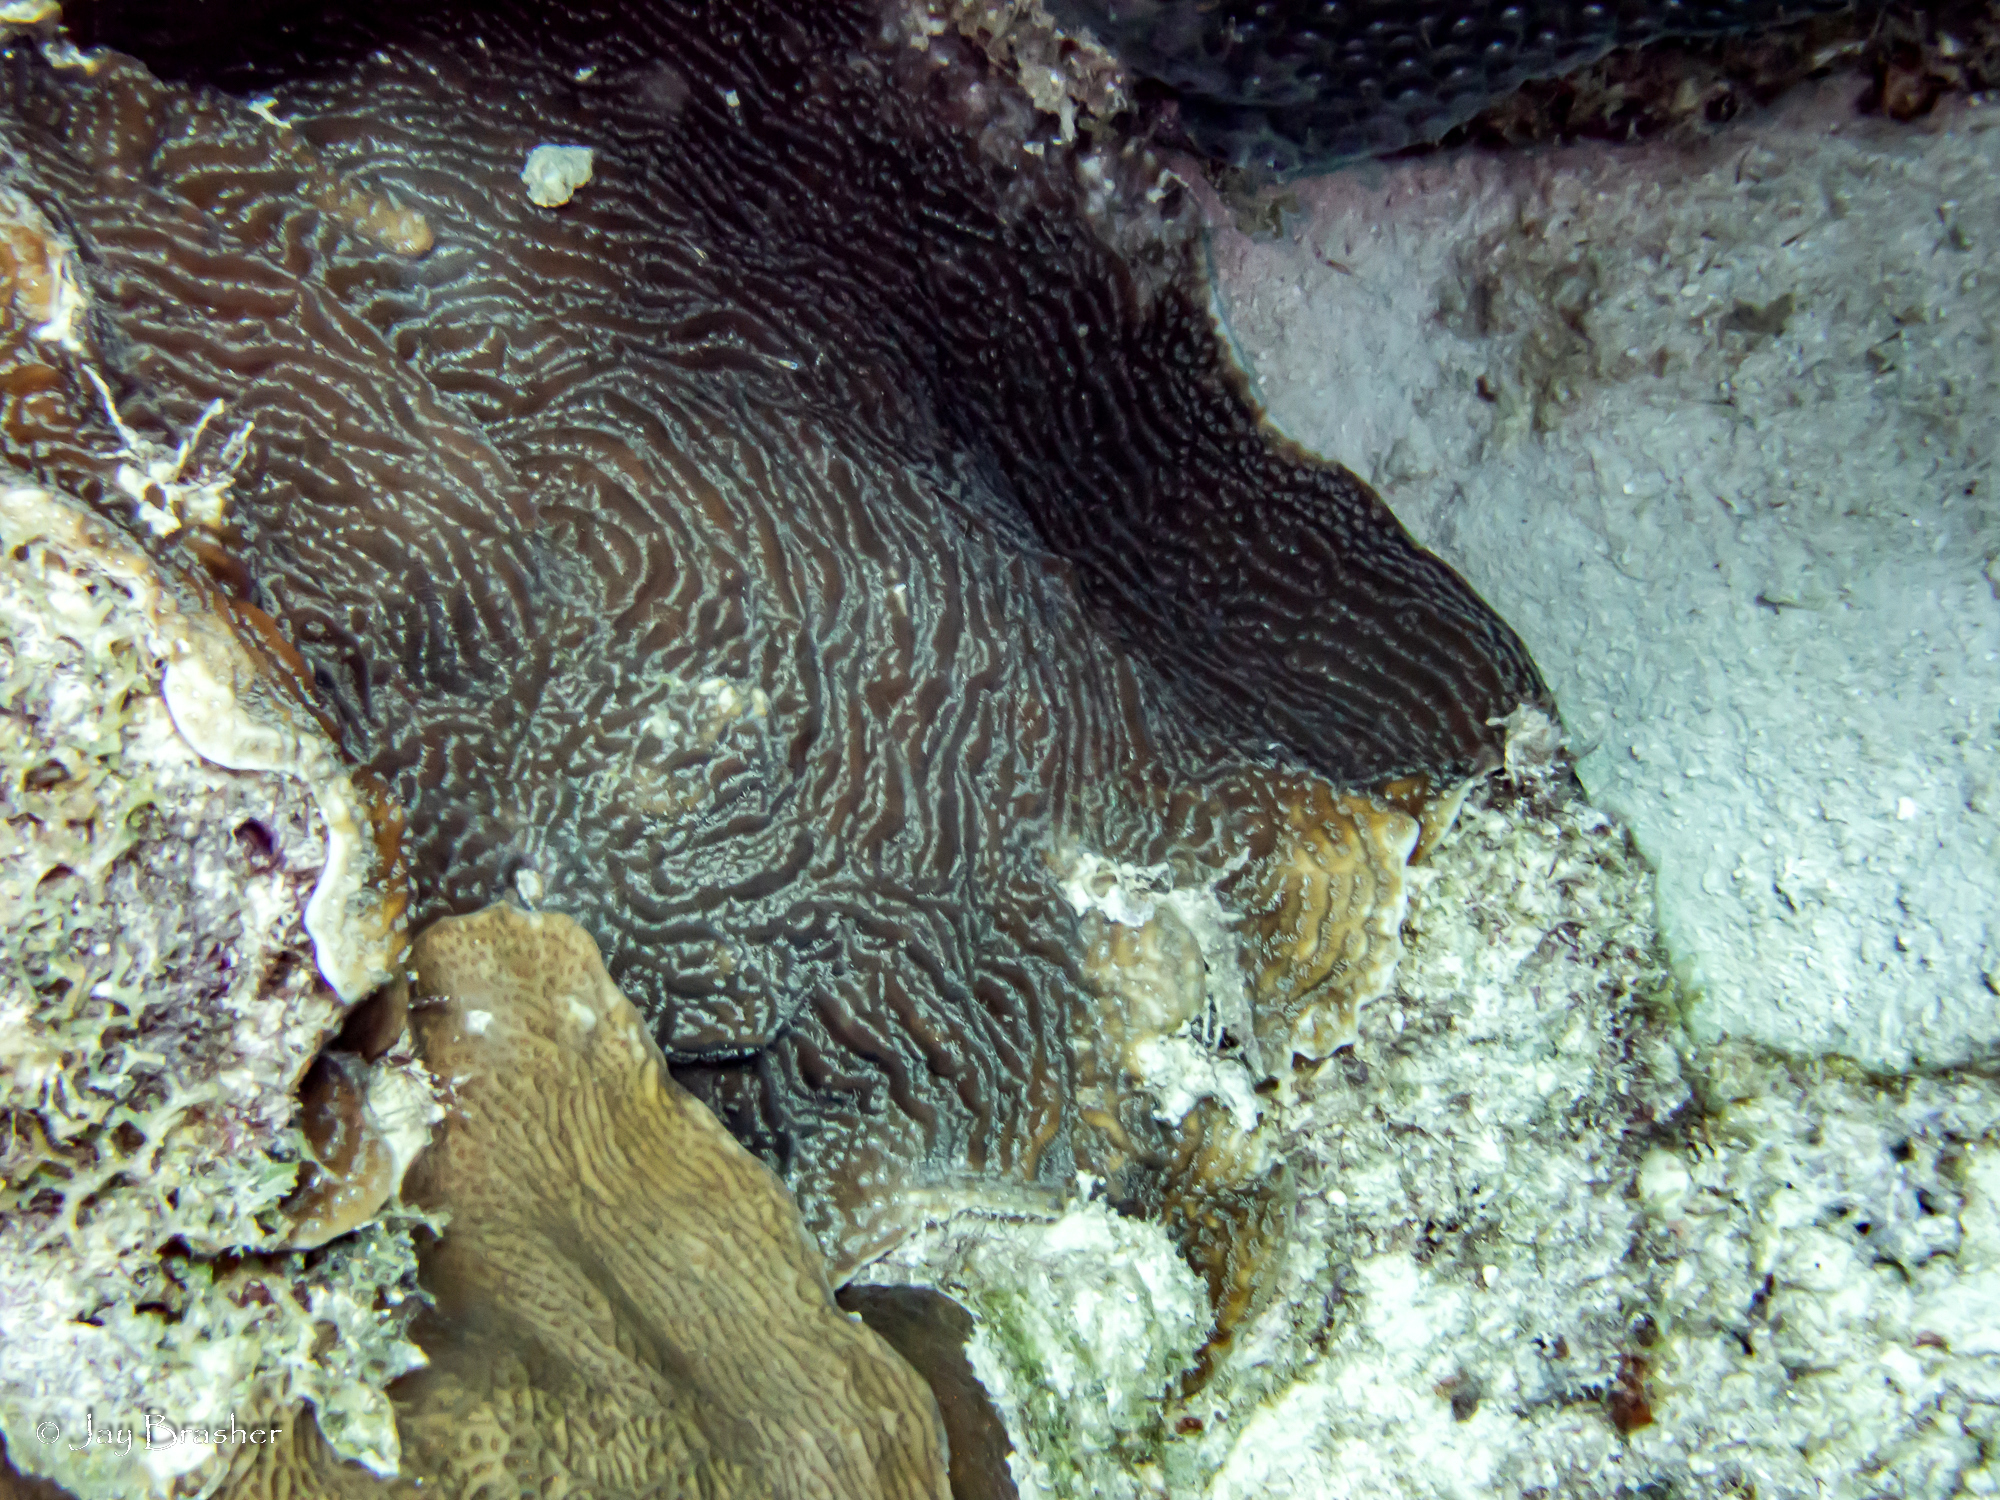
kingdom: Animalia
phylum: Cnidaria
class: Anthozoa
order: Scleractinia
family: Agariciidae
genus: Agaricia
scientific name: Agaricia lamarcki
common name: Lamarck's sheet coral
